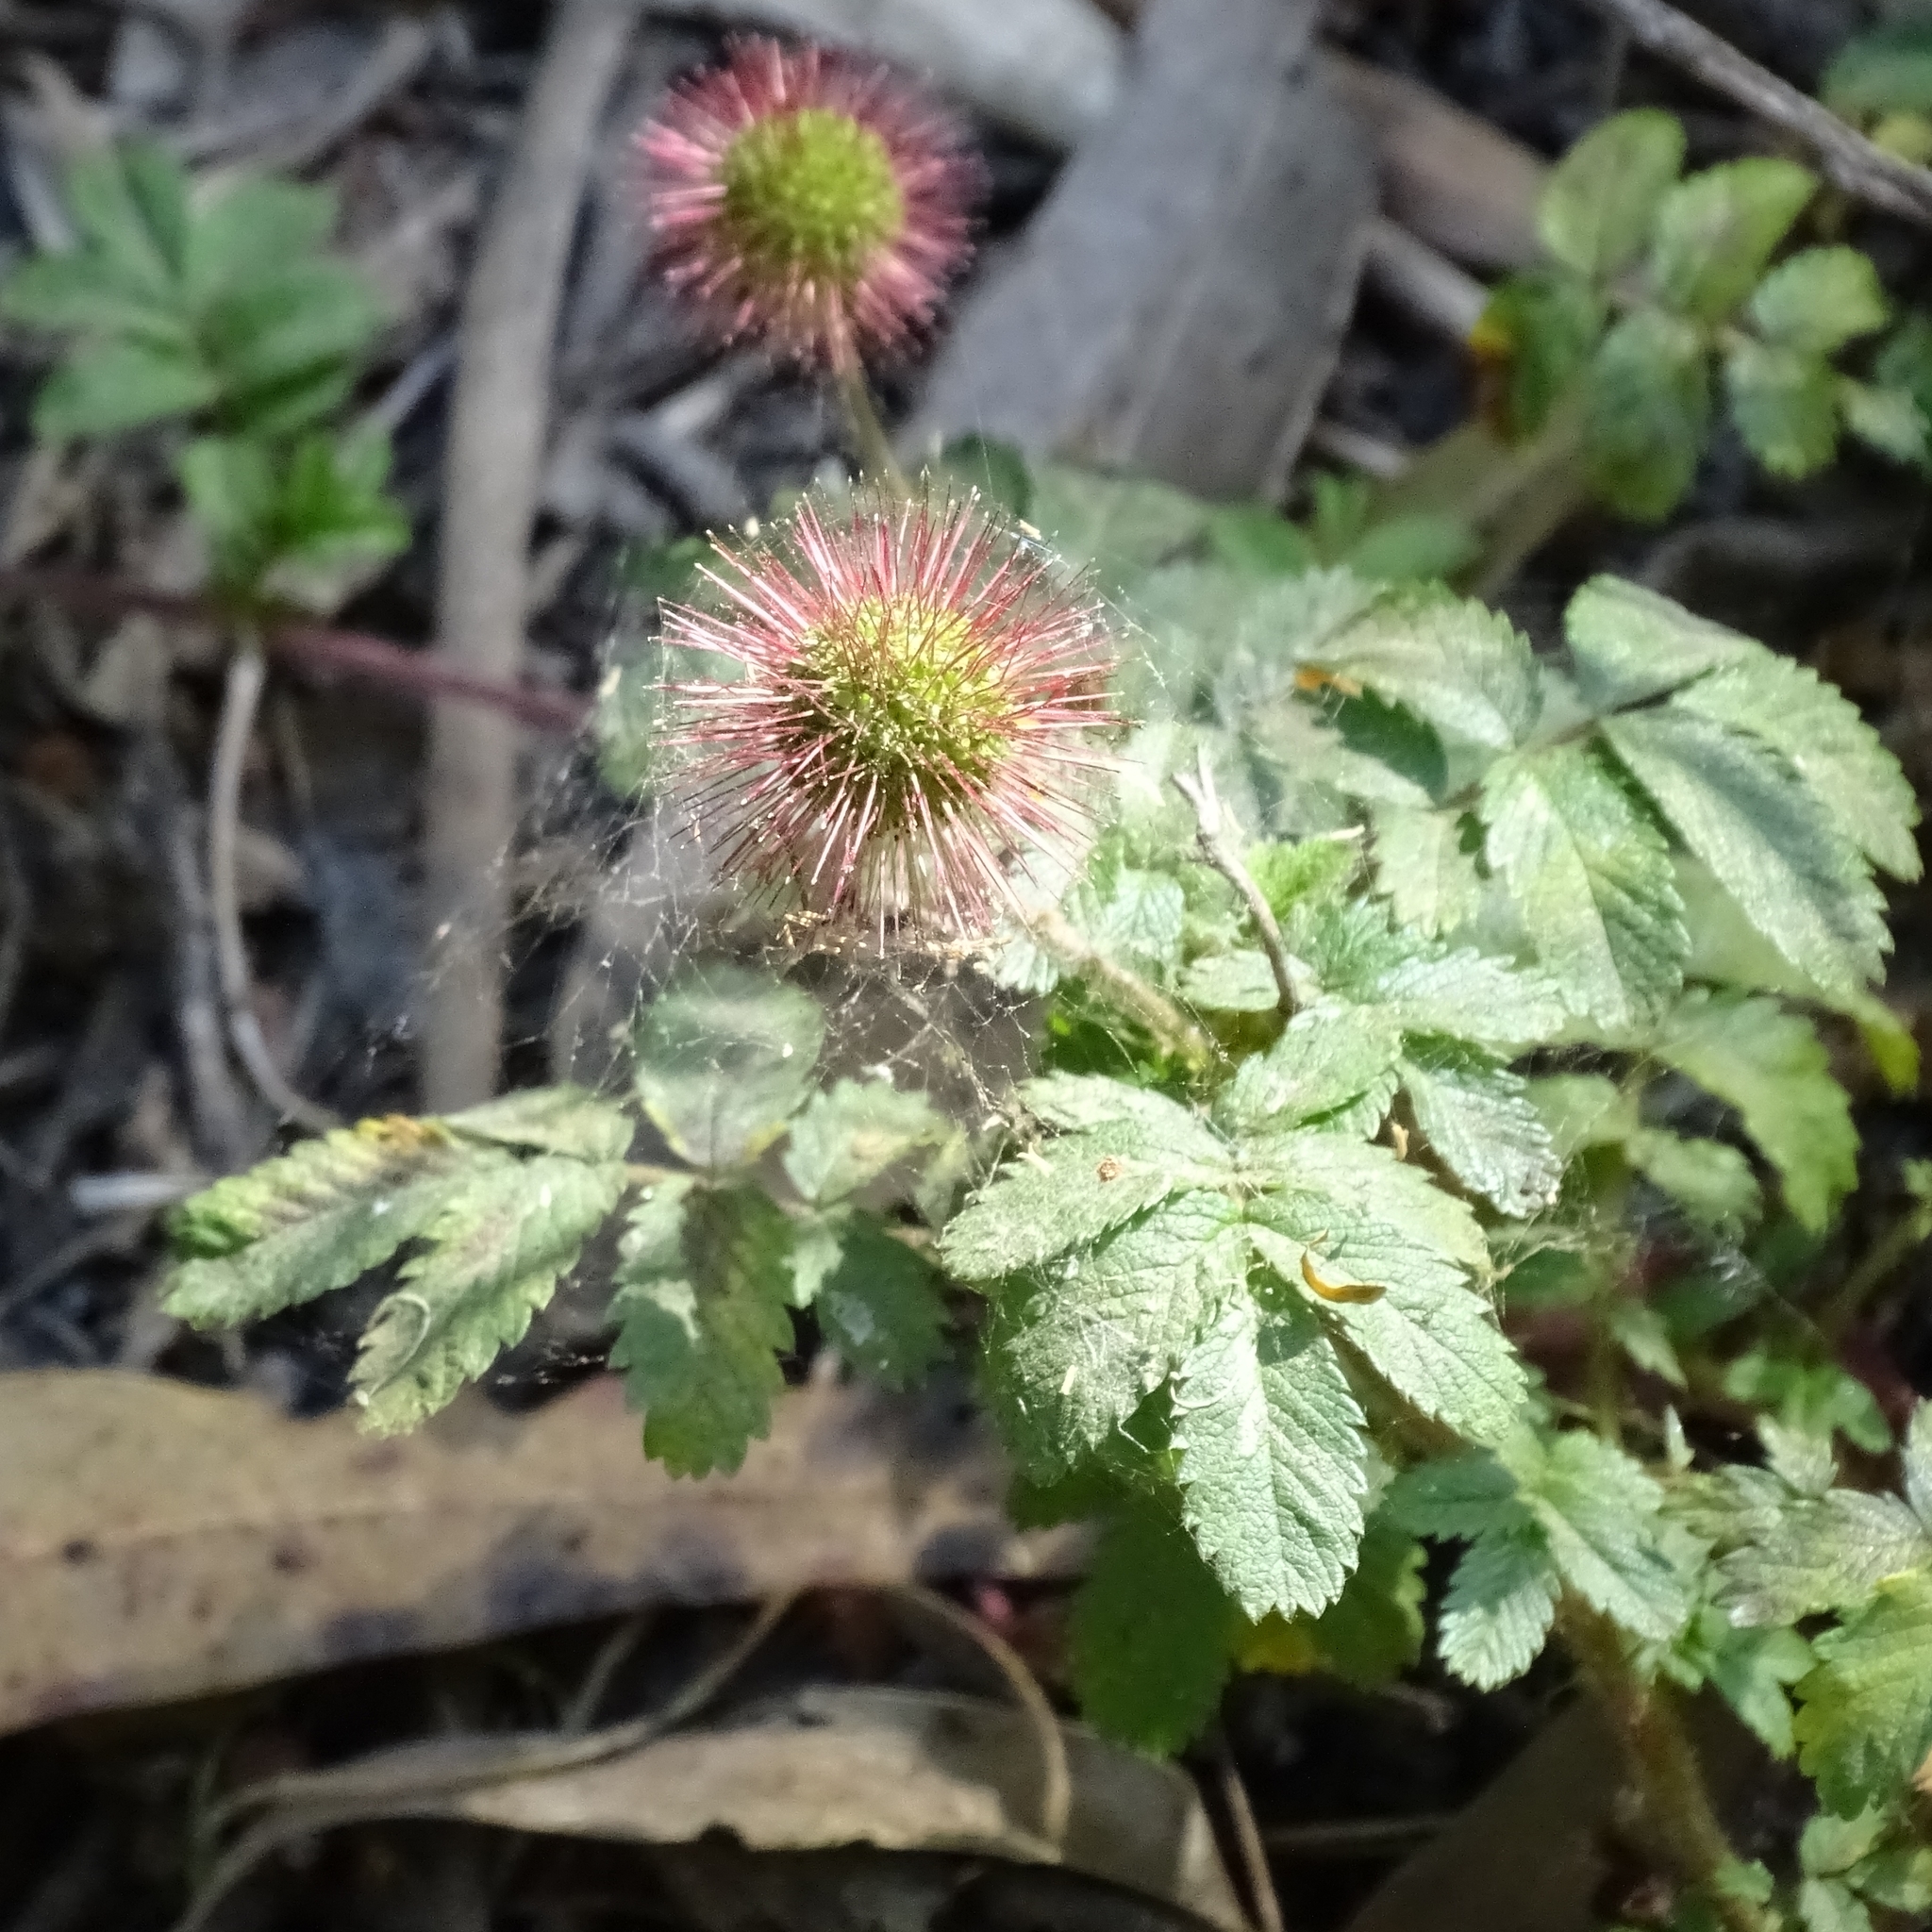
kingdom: Plantae
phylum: Tracheophyta
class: Magnoliopsida
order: Rosales
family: Rosaceae
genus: Acaena
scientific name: Acaena ovalifolia
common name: Two-spined acaena
